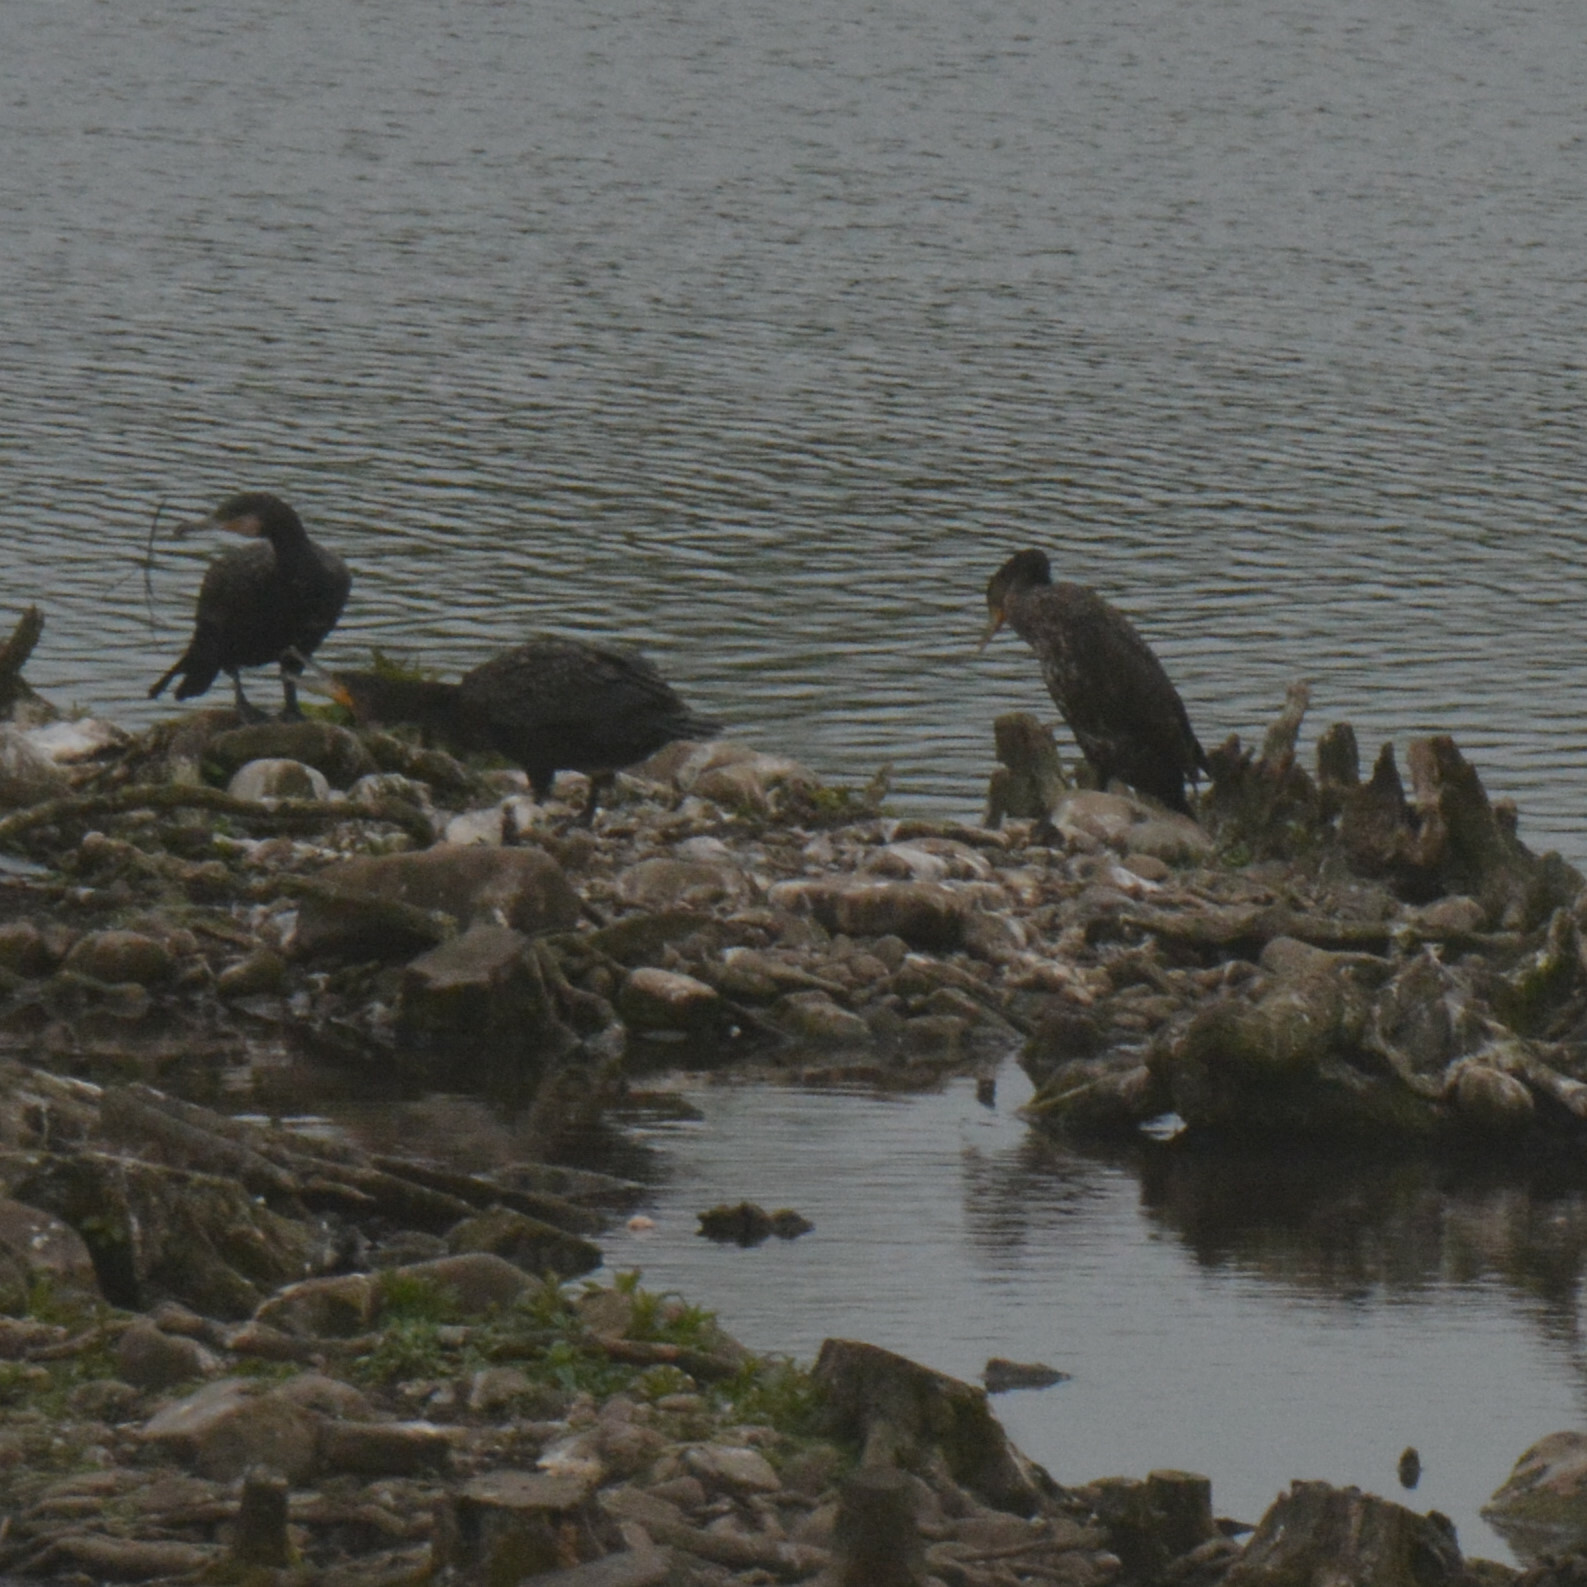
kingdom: Animalia
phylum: Chordata
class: Aves
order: Suliformes
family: Phalacrocoracidae
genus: Phalacrocorax
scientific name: Phalacrocorax carbo
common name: Great cormorant
